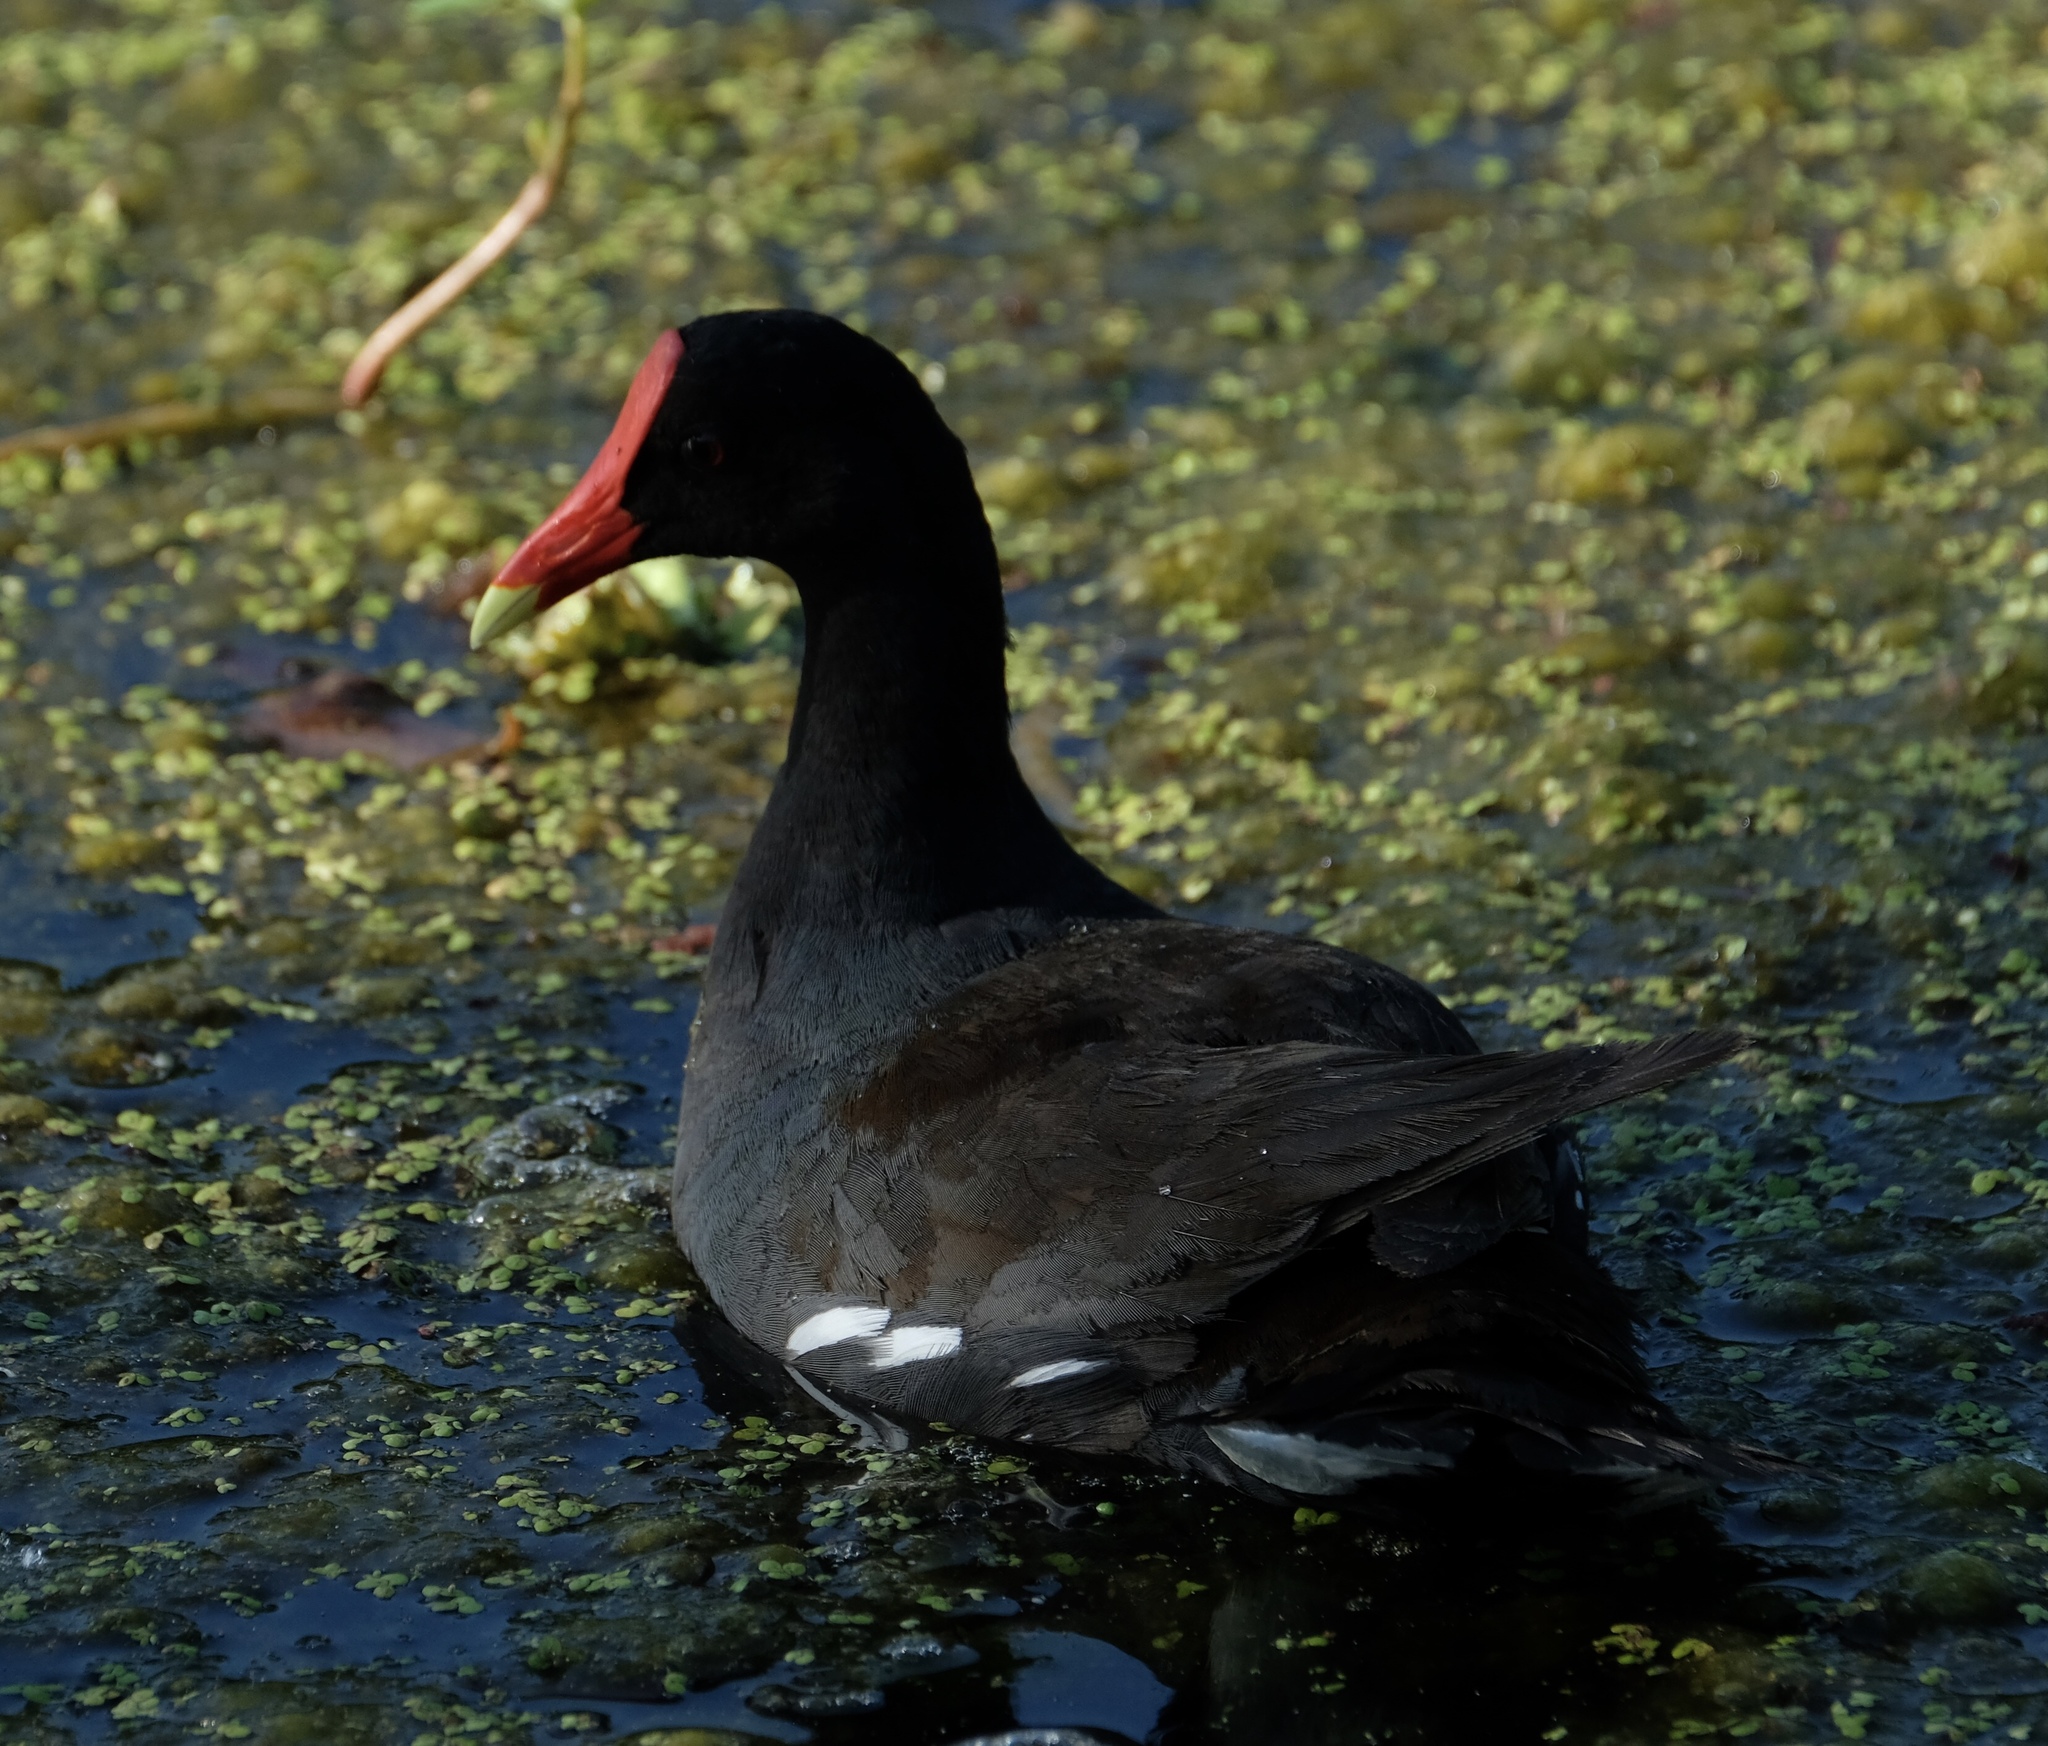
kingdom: Animalia
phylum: Chordata
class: Aves
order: Gruiformes
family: Rallidae
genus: Gallinula
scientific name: Gallinula chloropus
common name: Common moorhen
